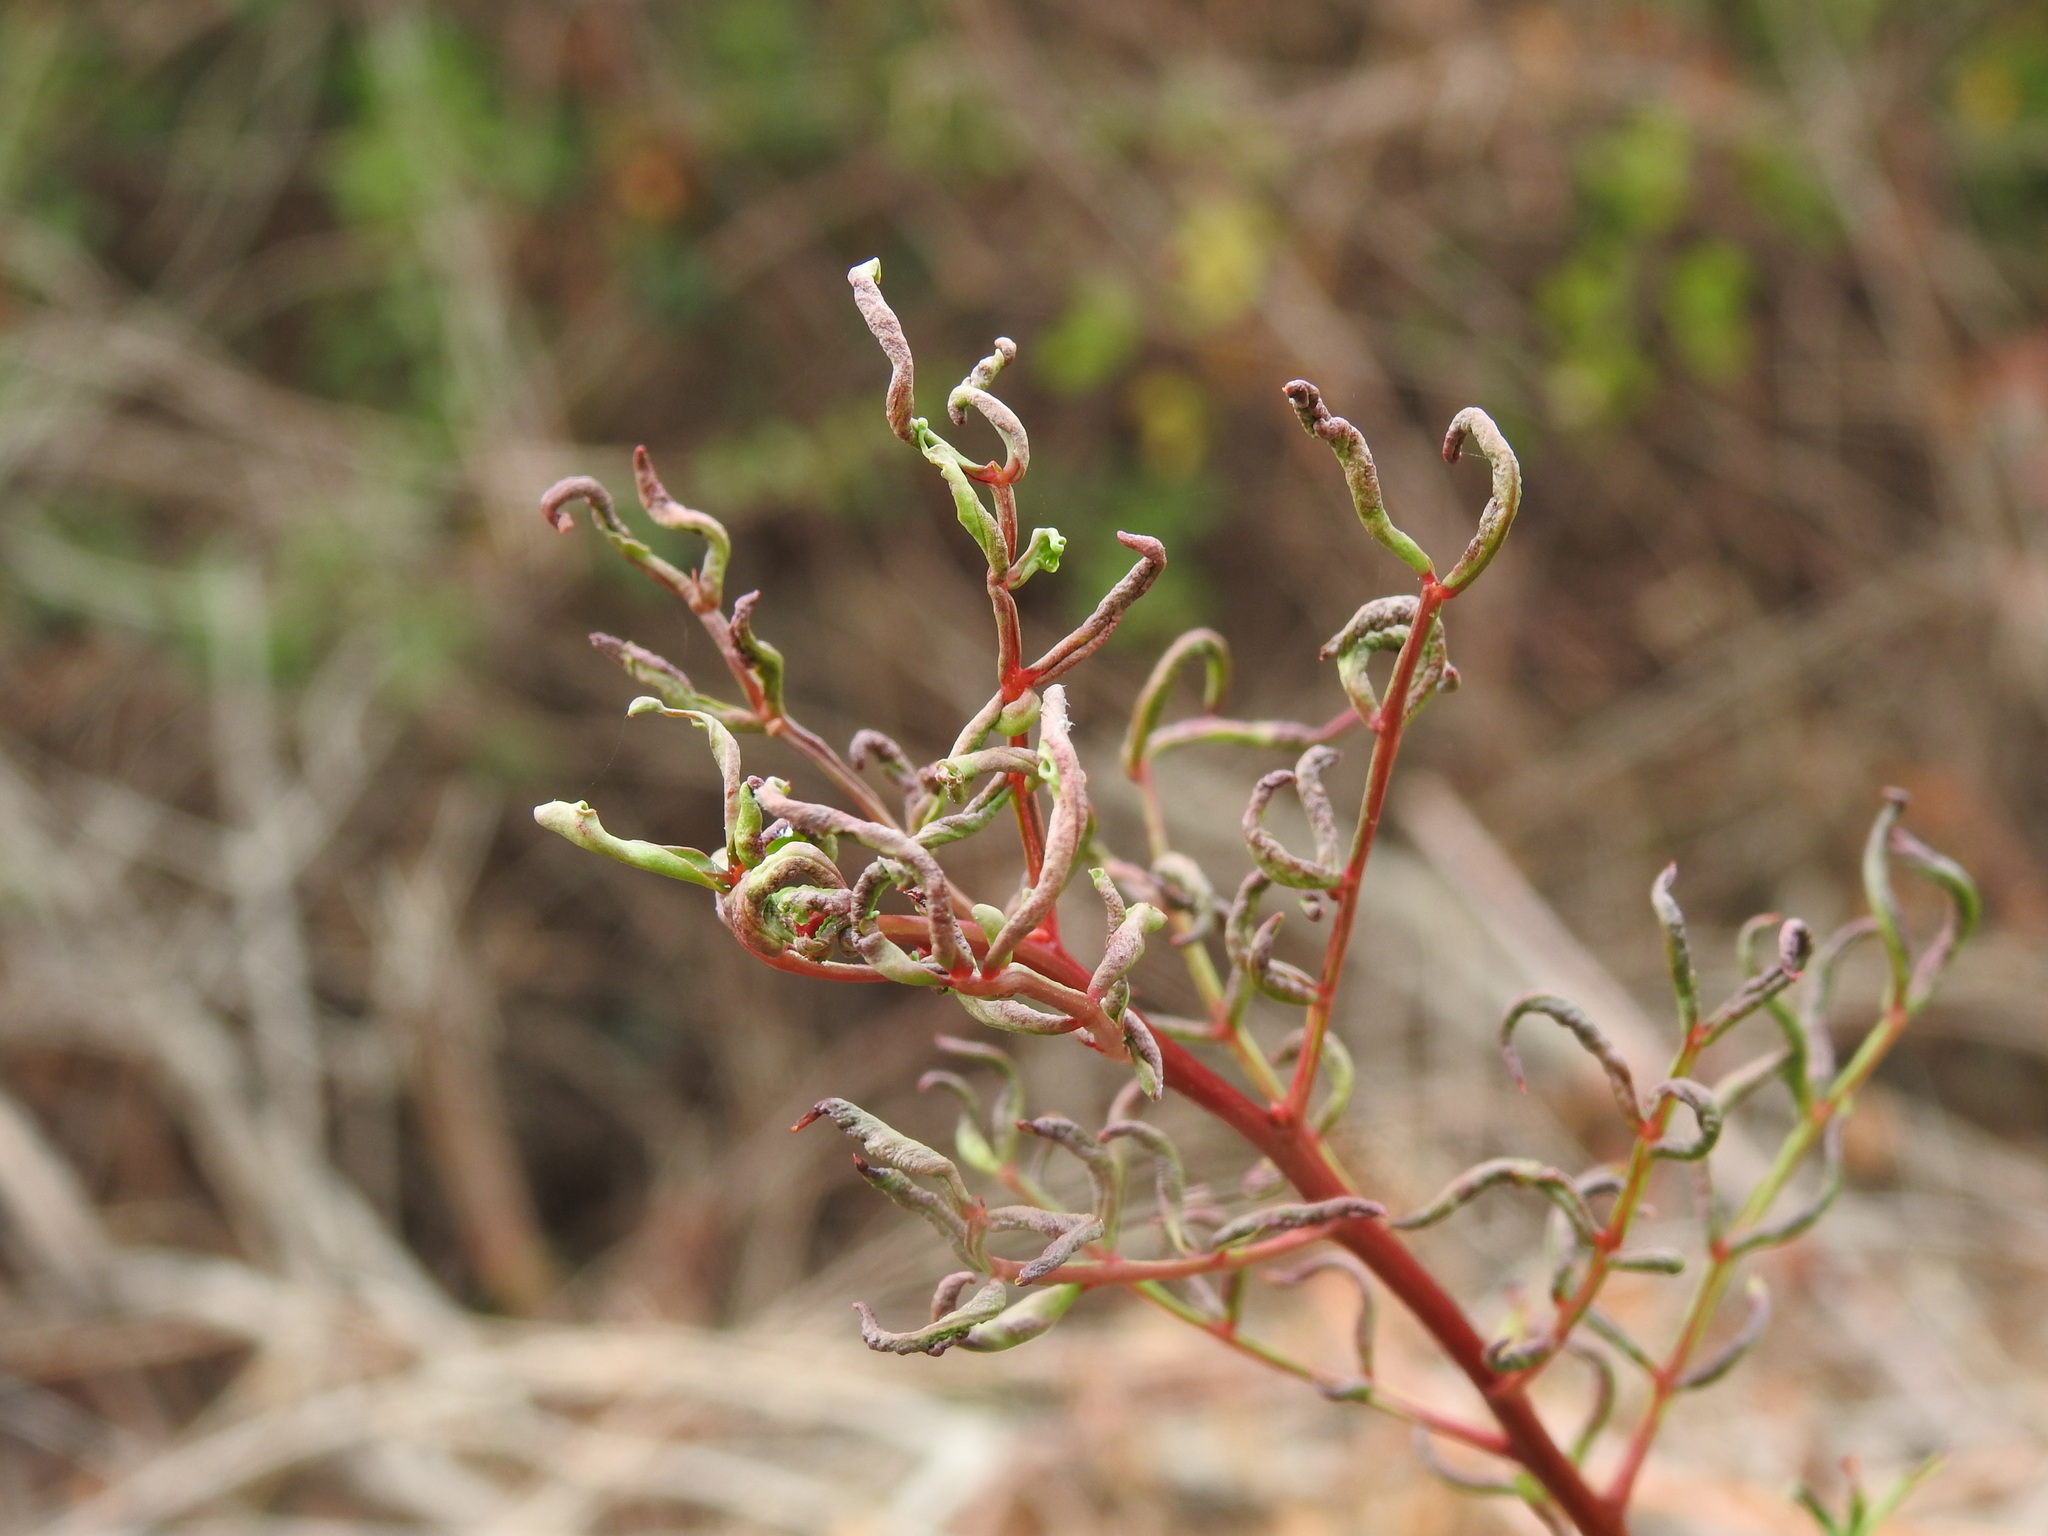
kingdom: Animalia
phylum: Arthropoda
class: Arachnida
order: Trombidiformes
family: Eriophyidae
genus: Aceria
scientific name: Aceria stefanii
